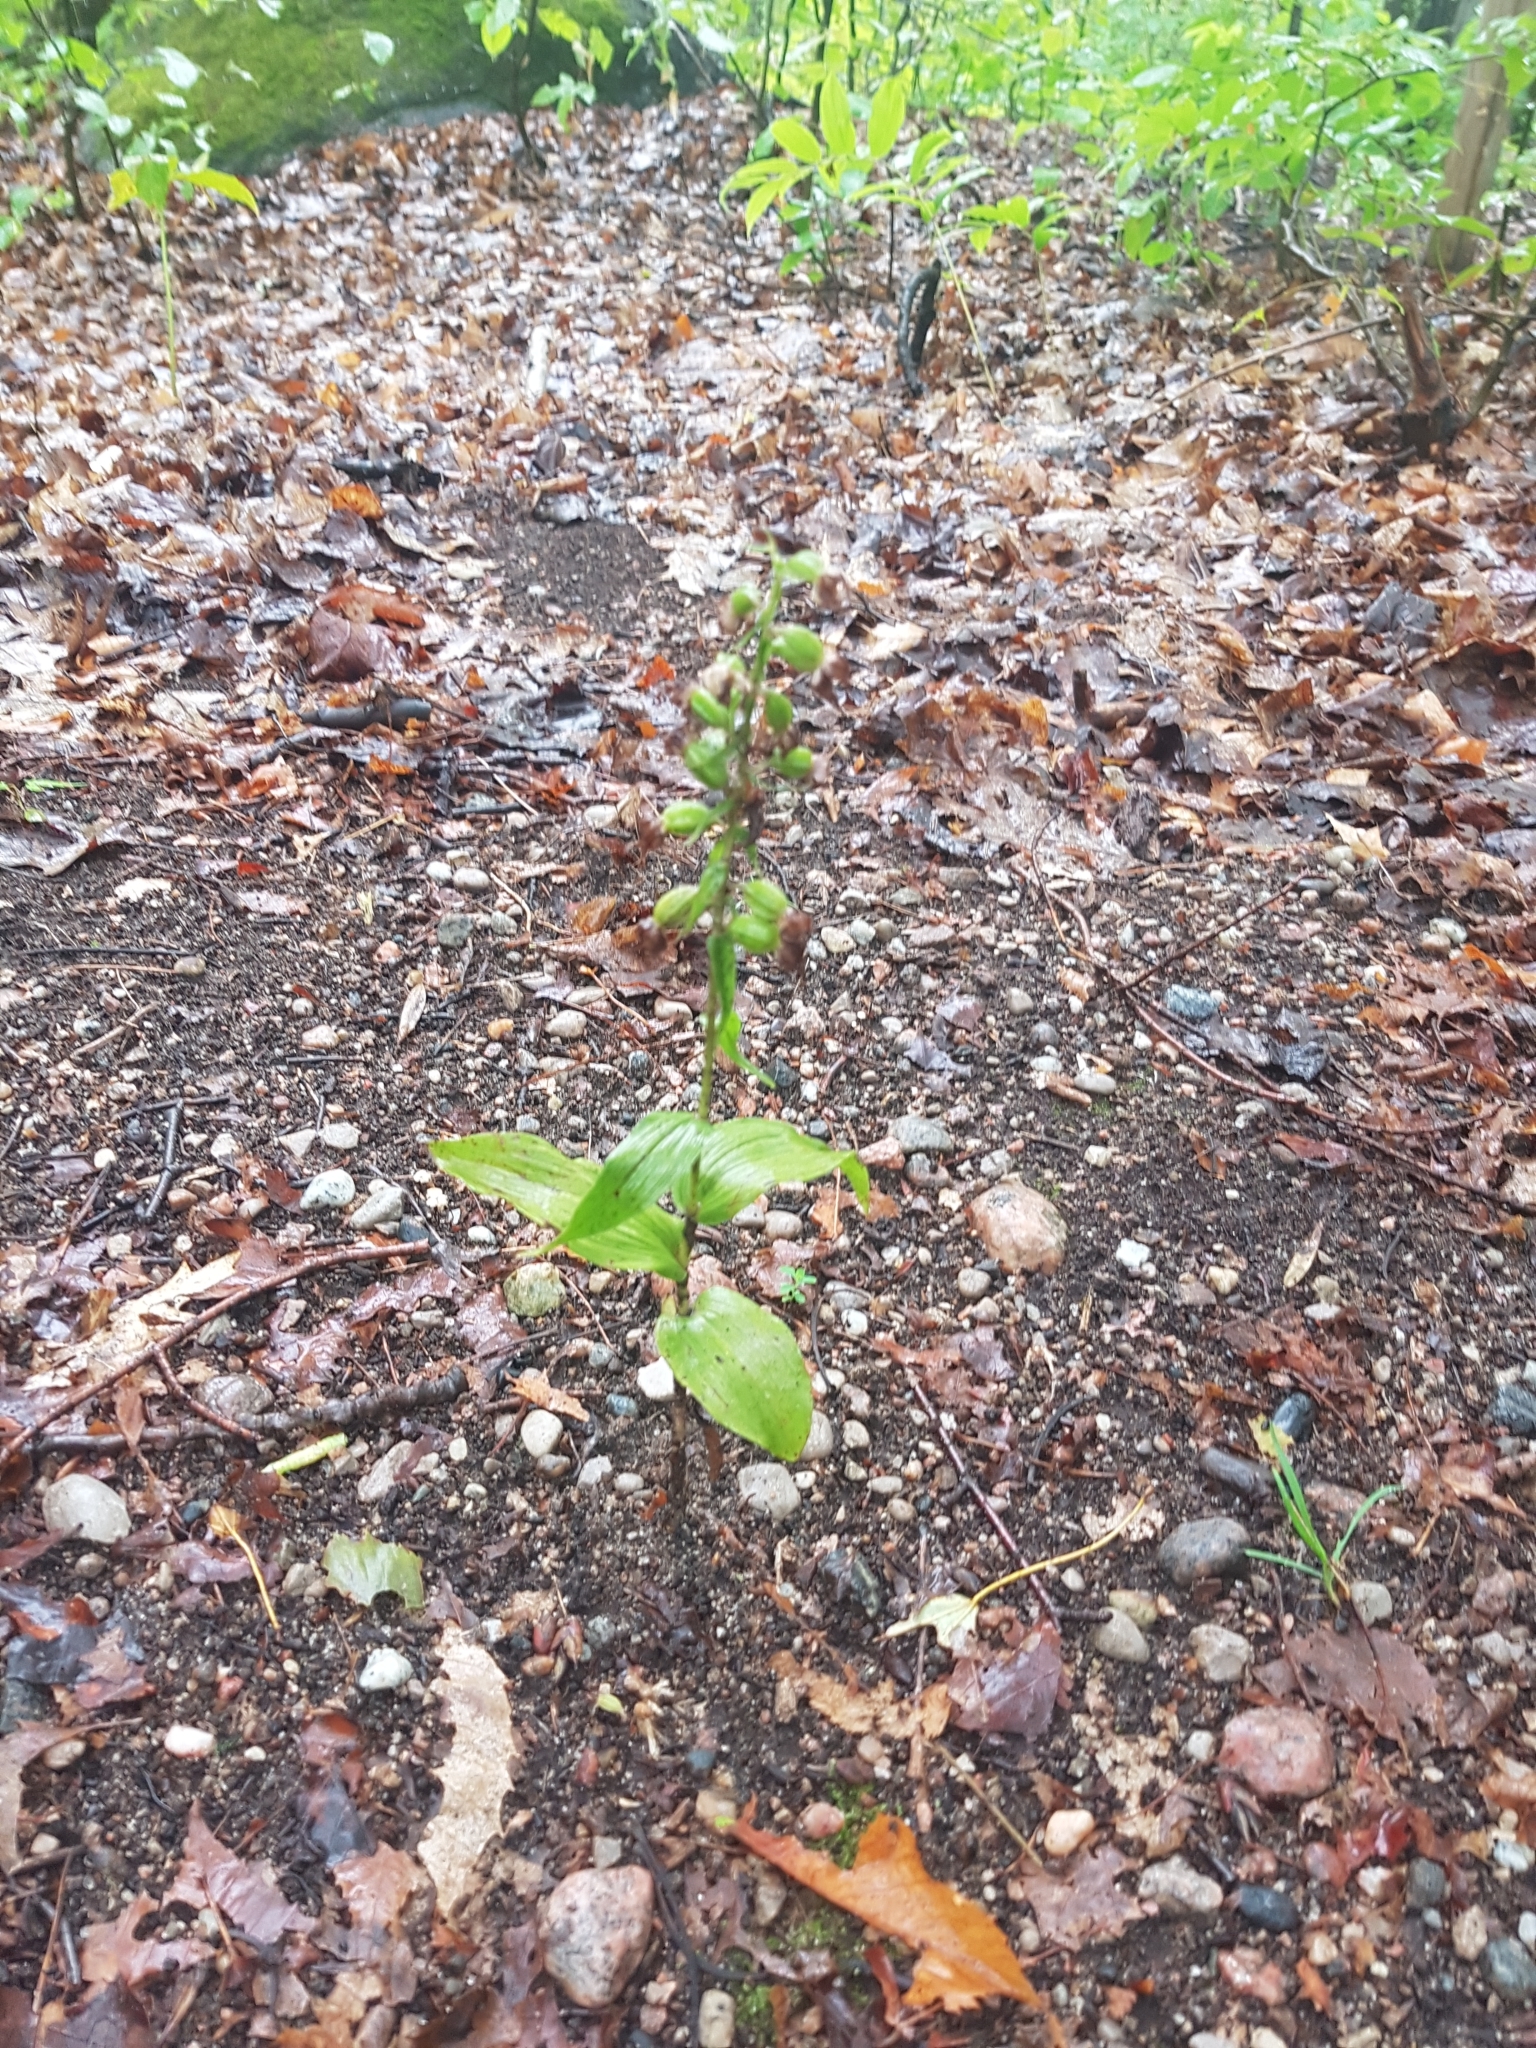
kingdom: Plantae
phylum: Tracheophyta
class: Liliopsida
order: Asparagales
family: Orchidaceae
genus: Epipactis
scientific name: Epipactis helleborine
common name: Broad-leaved helleborine
